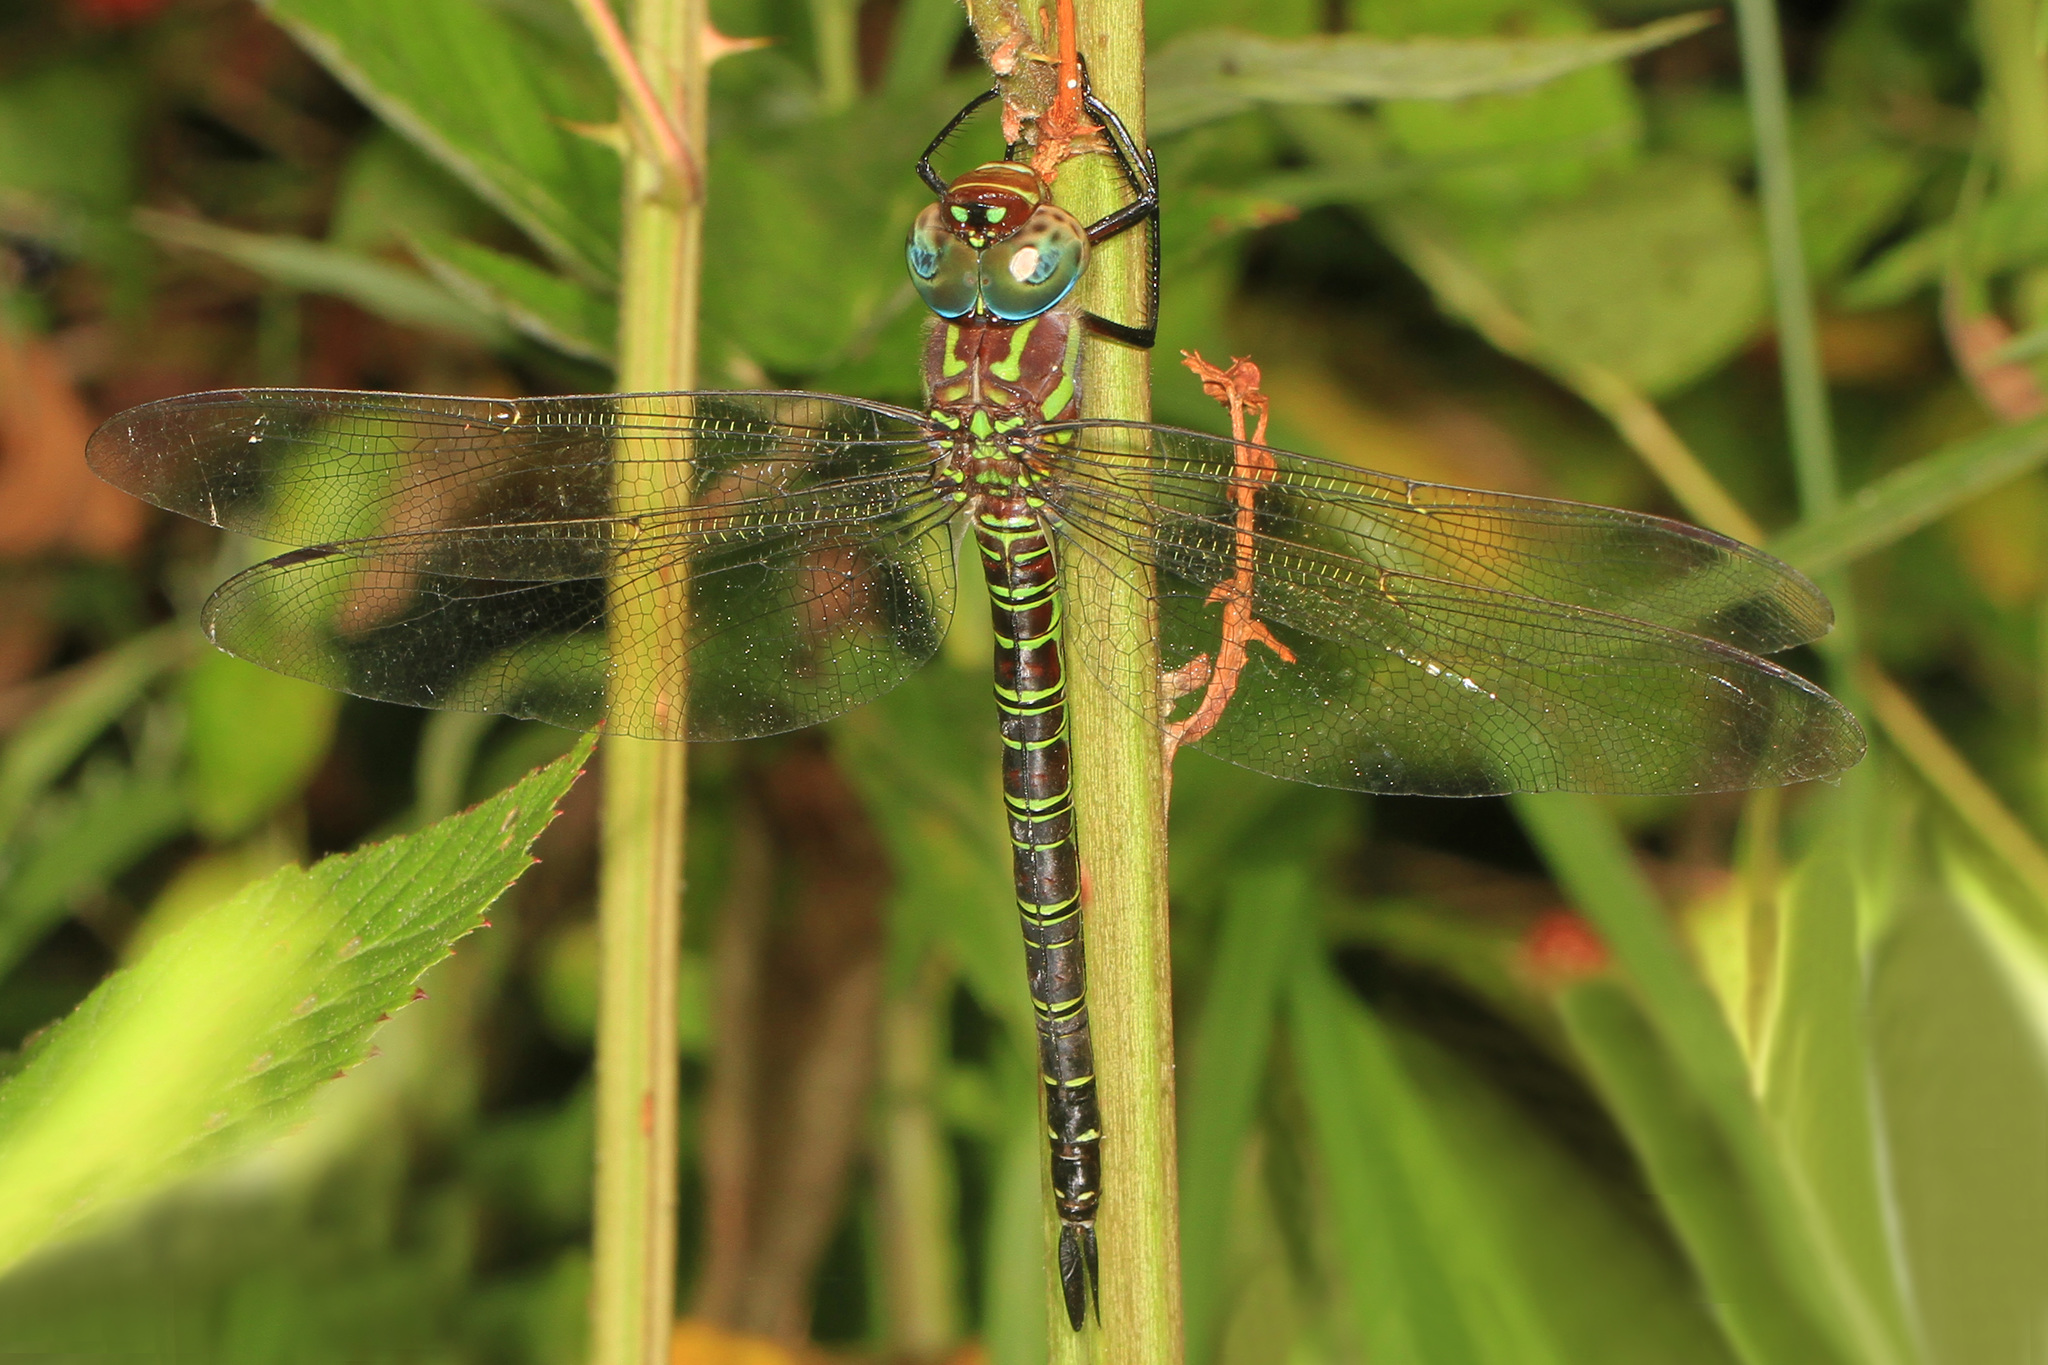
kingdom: Animalia
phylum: Arthropoda
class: Insecta
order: Odonata
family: Aeshnidae
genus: Epiaeschna
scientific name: Epiaeschna heros
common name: Swamp darner
